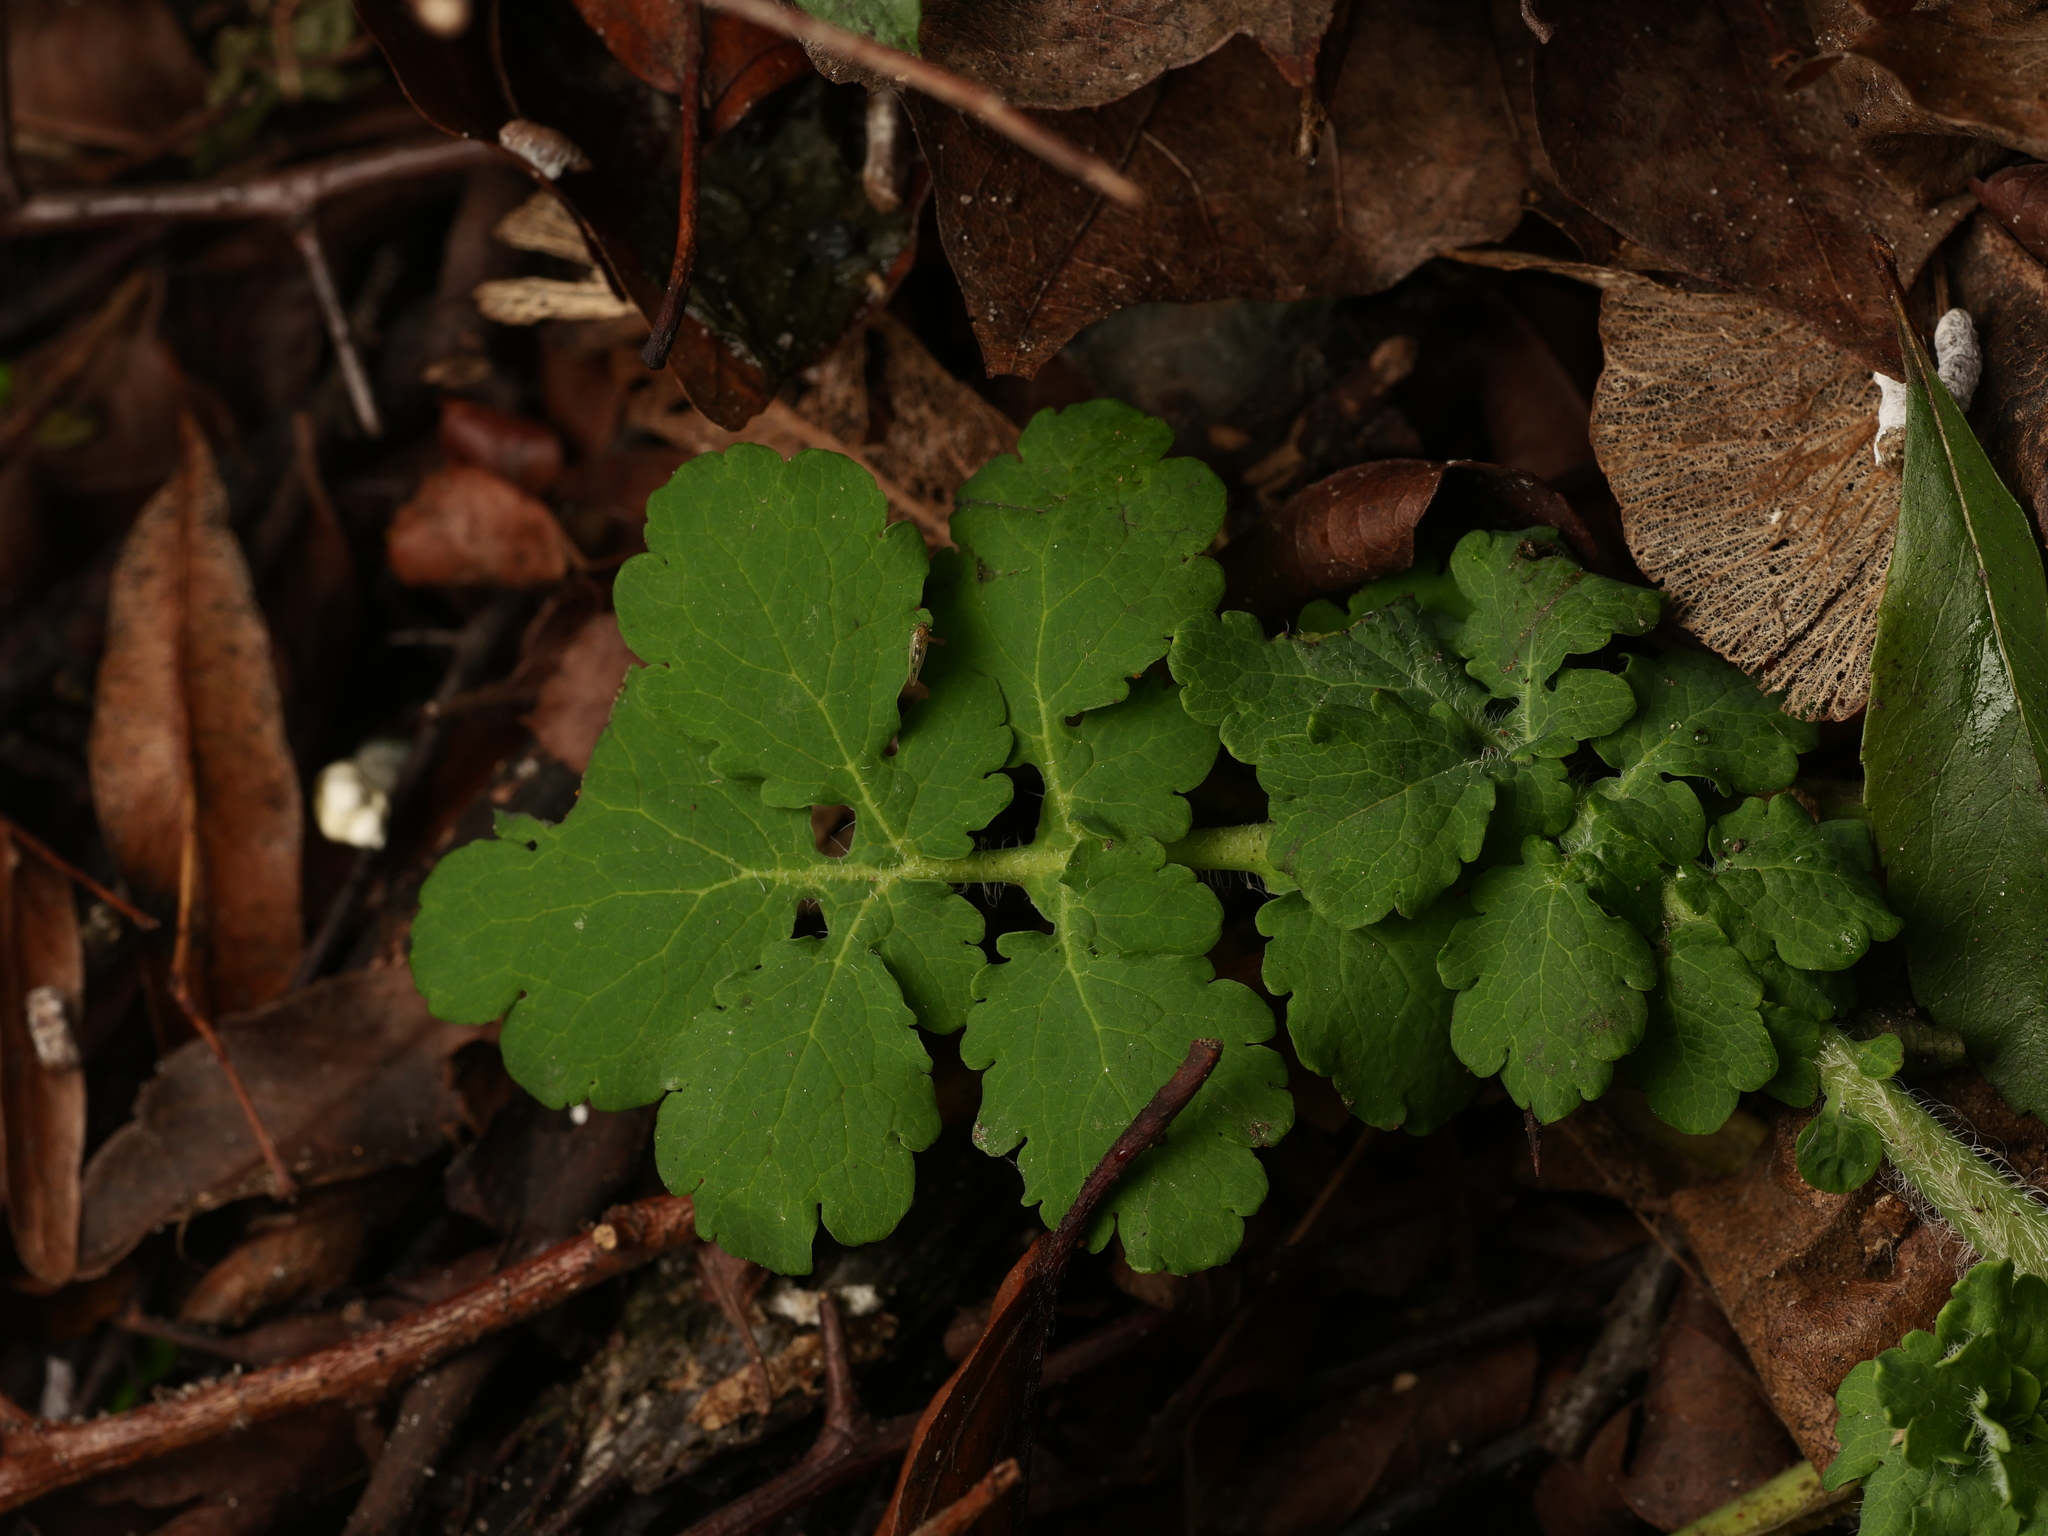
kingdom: Plantae
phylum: Tracheophyta
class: Magnoliopsida
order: Ranunculales
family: Papaveraceae
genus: Chelidonium
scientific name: Chelidonium majus
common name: Greater celandine
